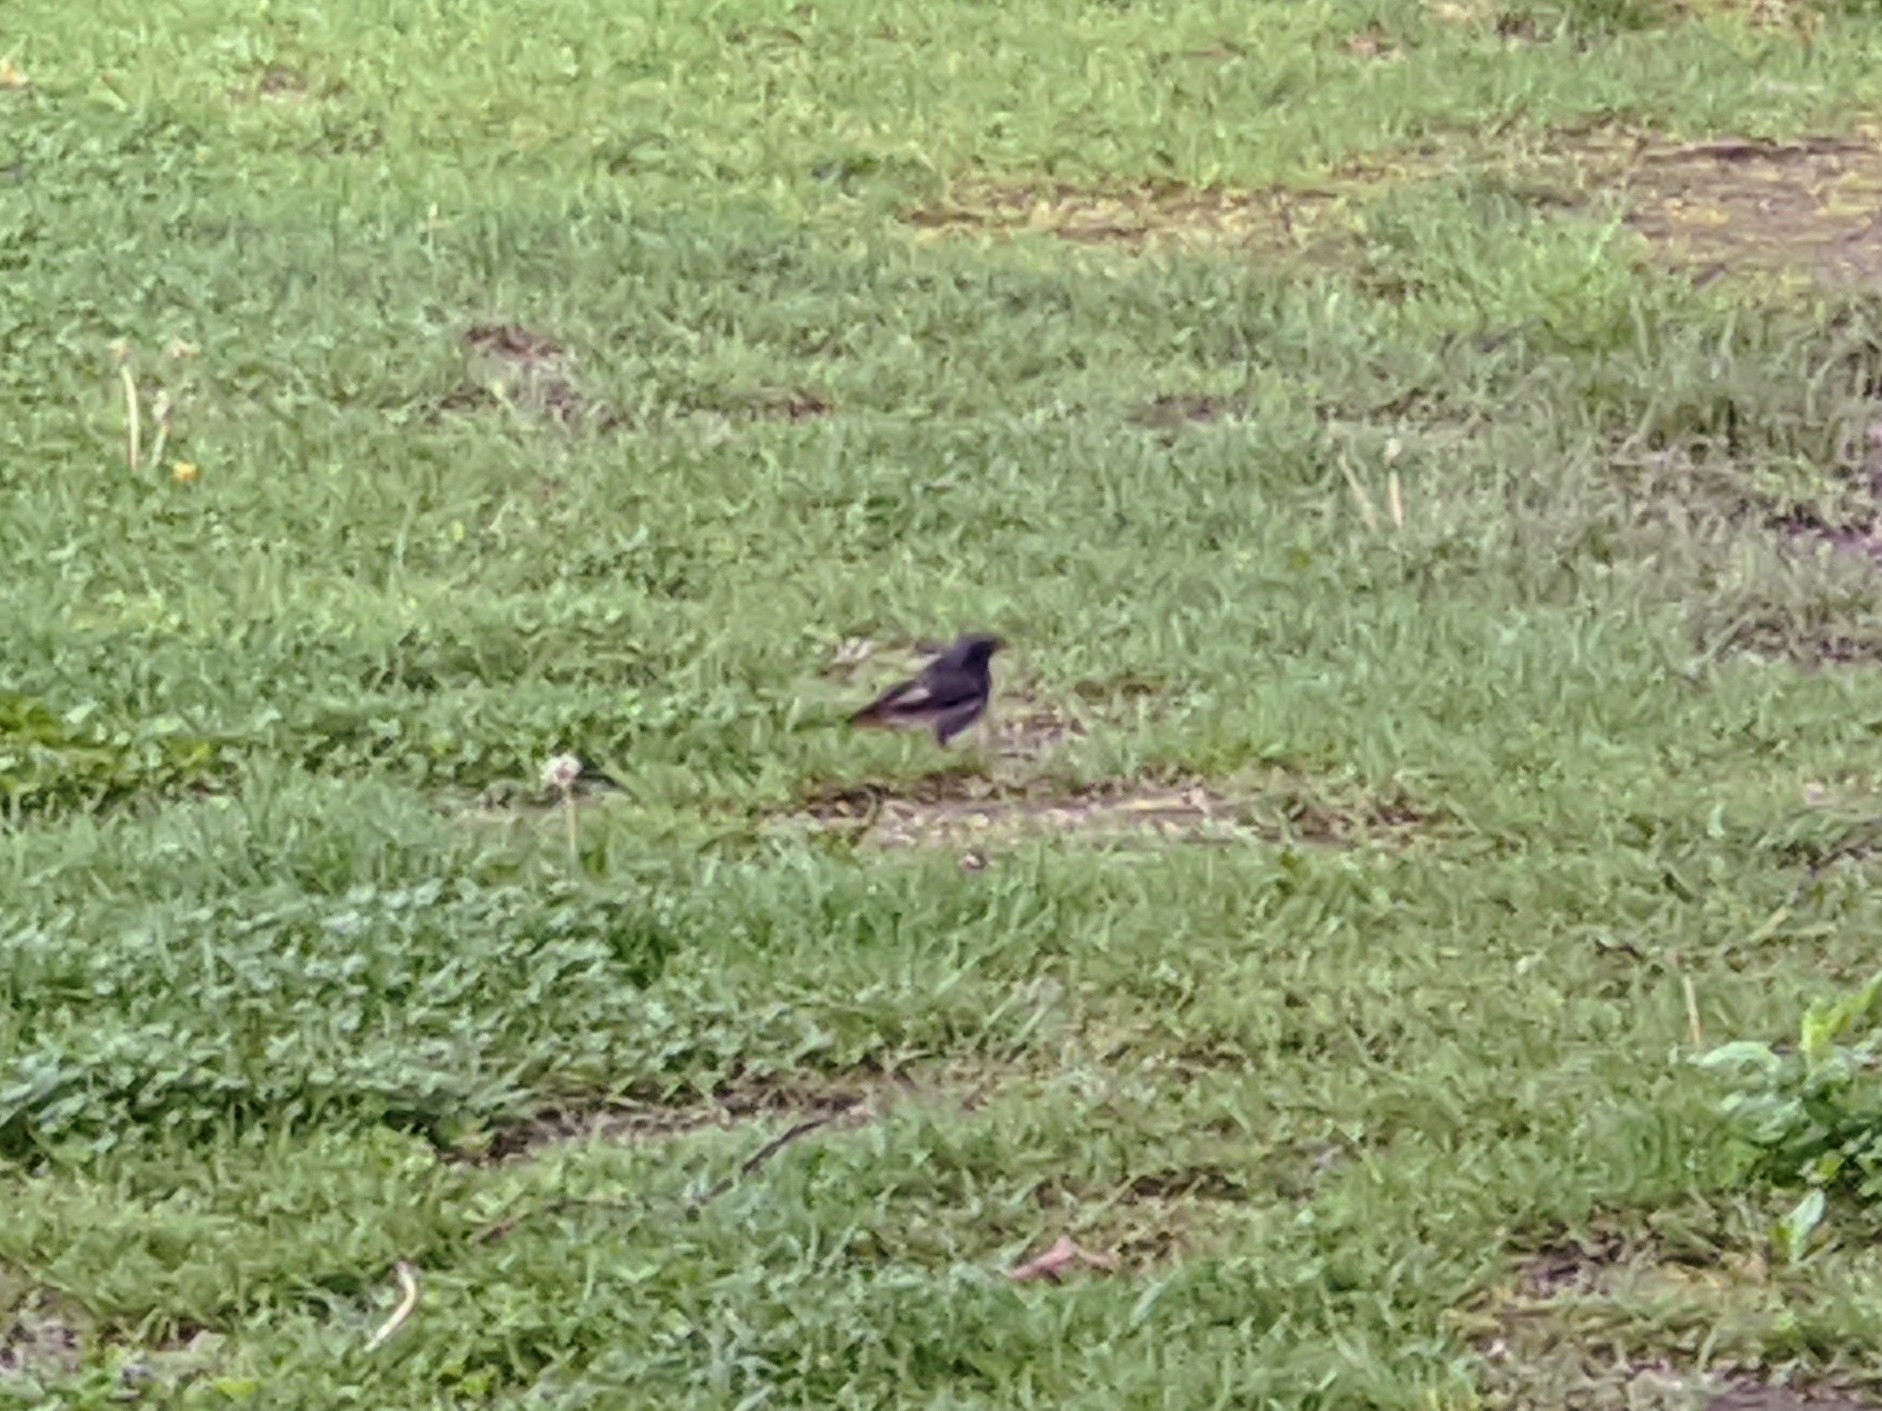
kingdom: Animalia
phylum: Chordata
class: Aves
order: Passeriformes
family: Muscicapidae
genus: Phoenicurus
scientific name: Phoenicurus ochruros
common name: Black redstart
